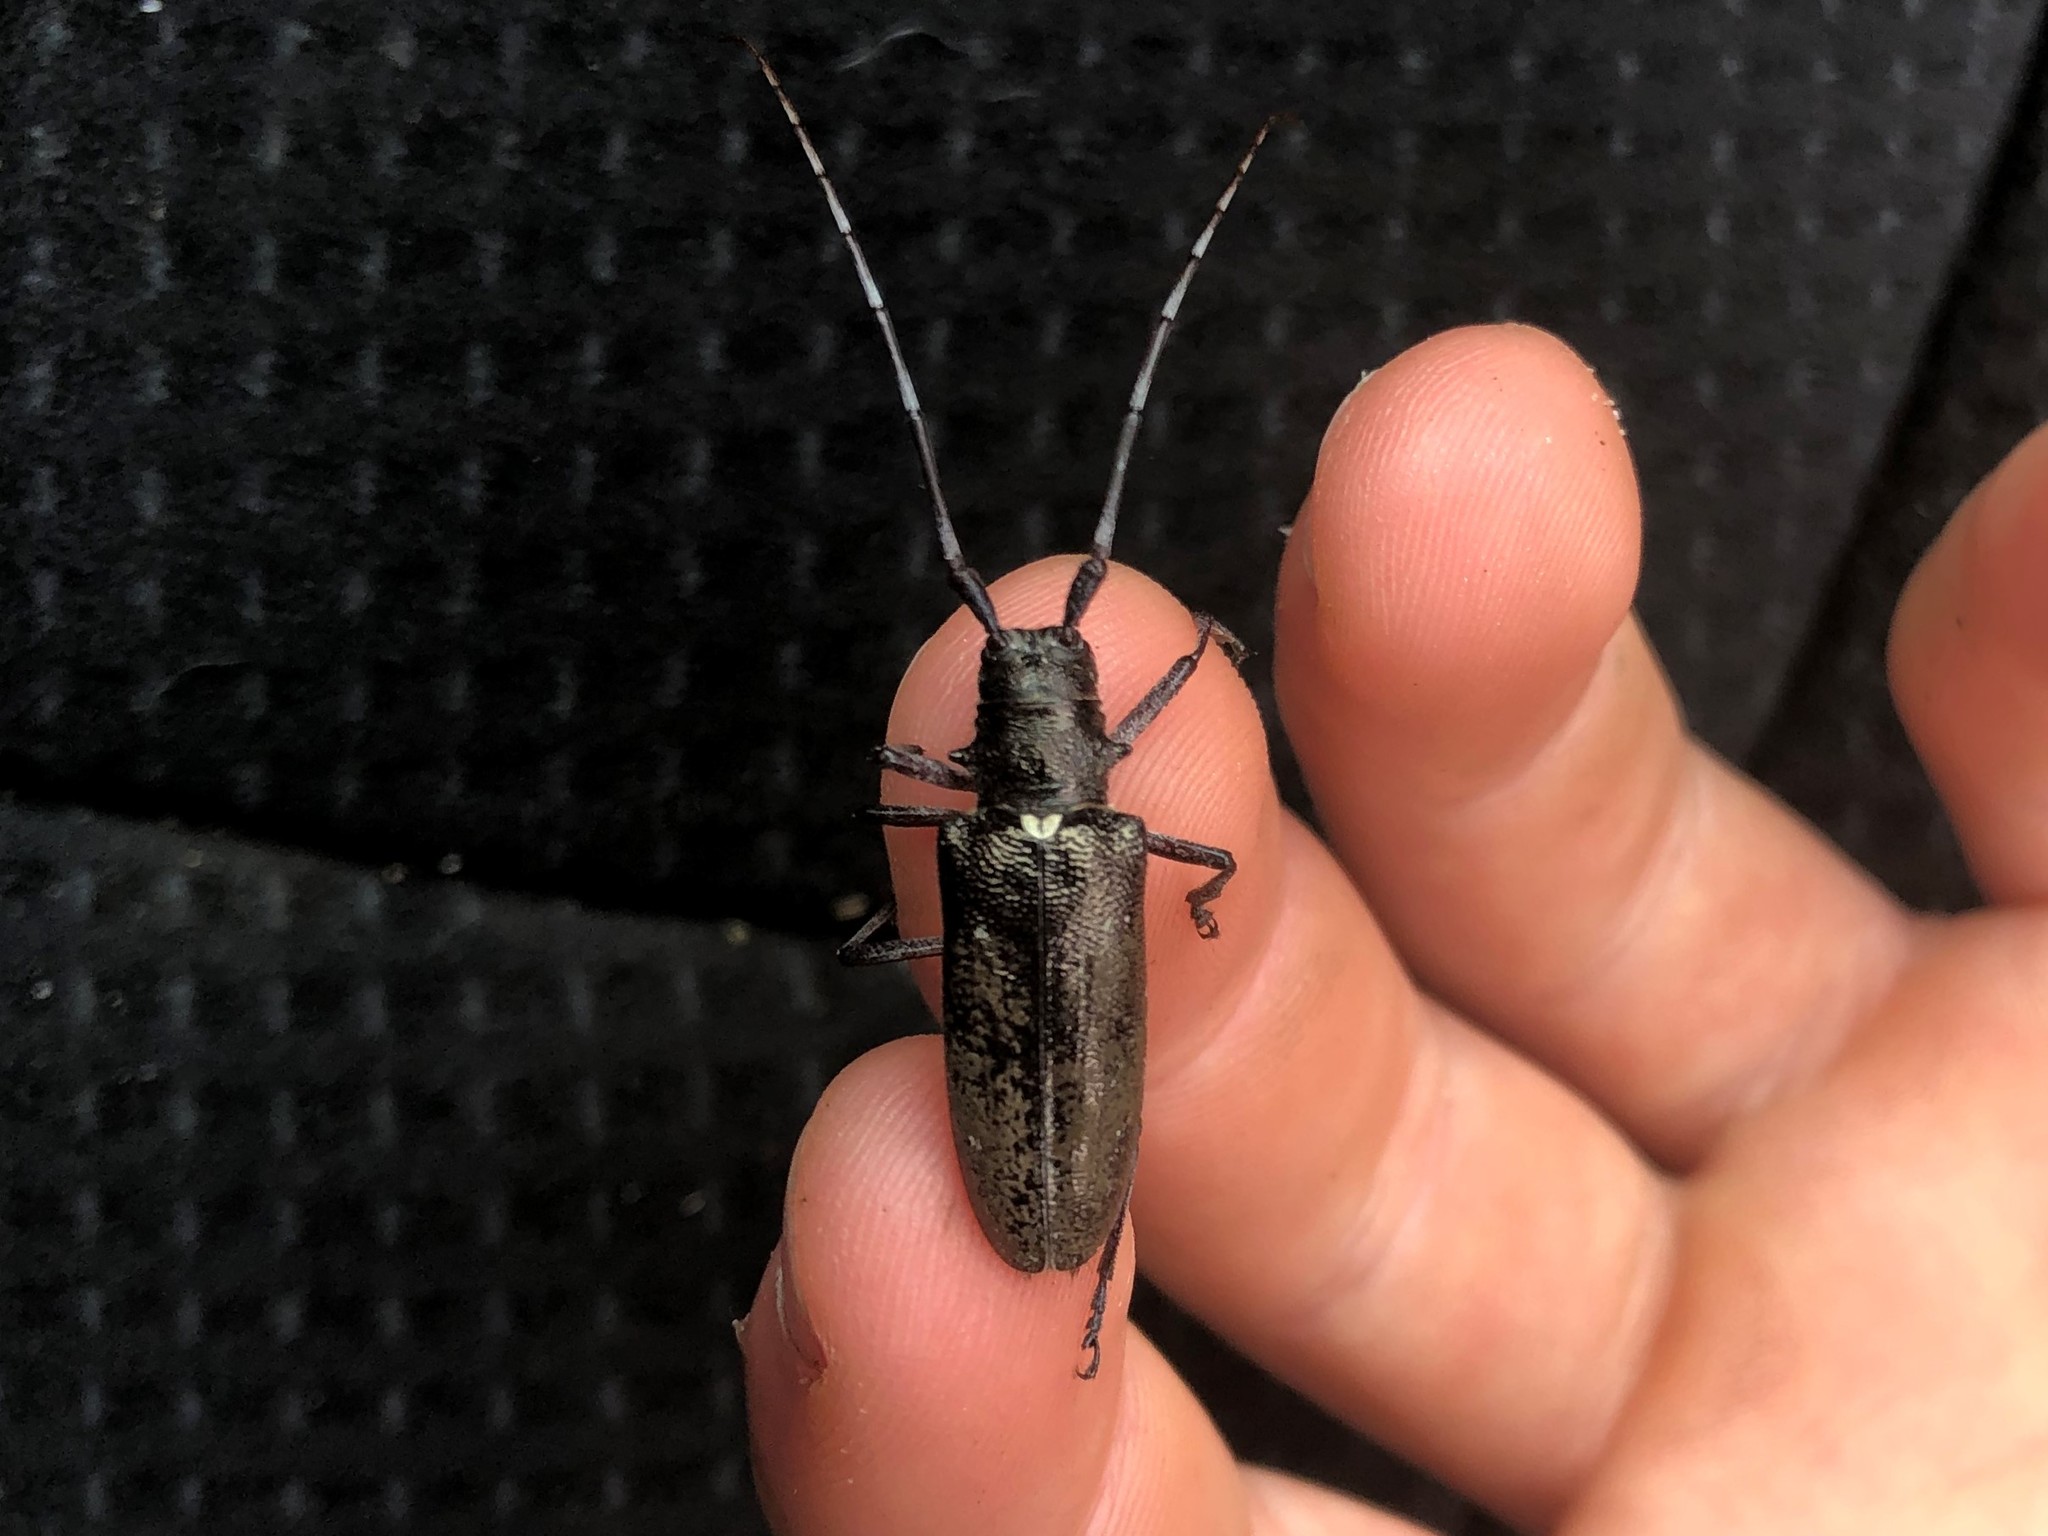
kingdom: Animalia
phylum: Arthropoda
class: Insecta
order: Coleoptera
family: Cerambycidae
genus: Monochamus
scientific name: Monochamus scutellatus
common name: White-spotted sawyer beetle
